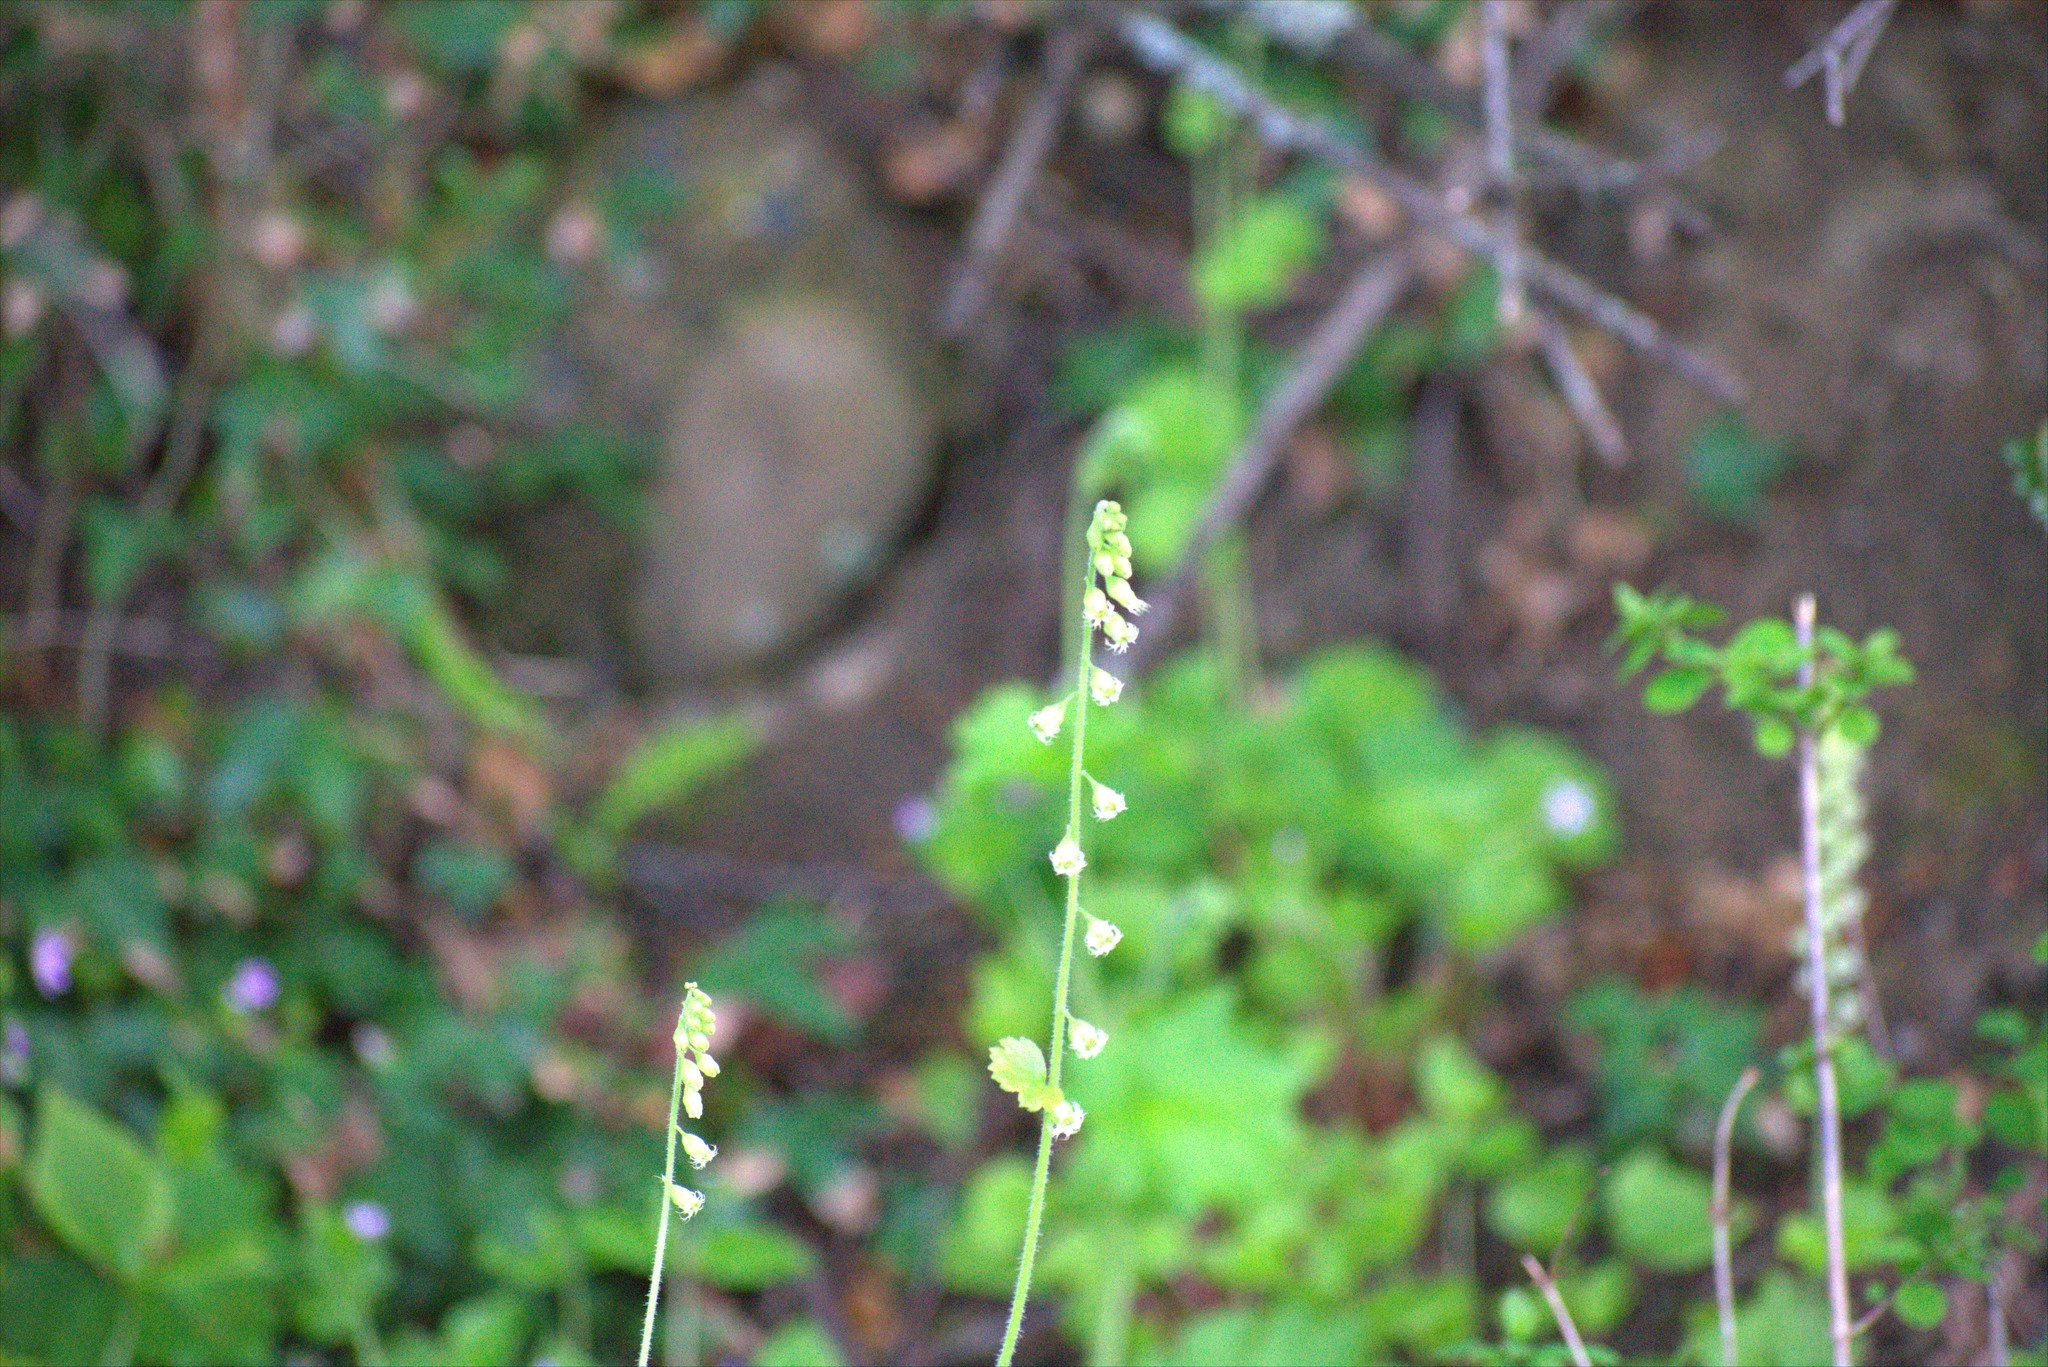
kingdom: Plantae
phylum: Tracheophyta
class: Magnoliopsida
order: Saxifragales
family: Saxifragaceae
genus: Tellima
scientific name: Tellima grandiflora
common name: Fringecups
